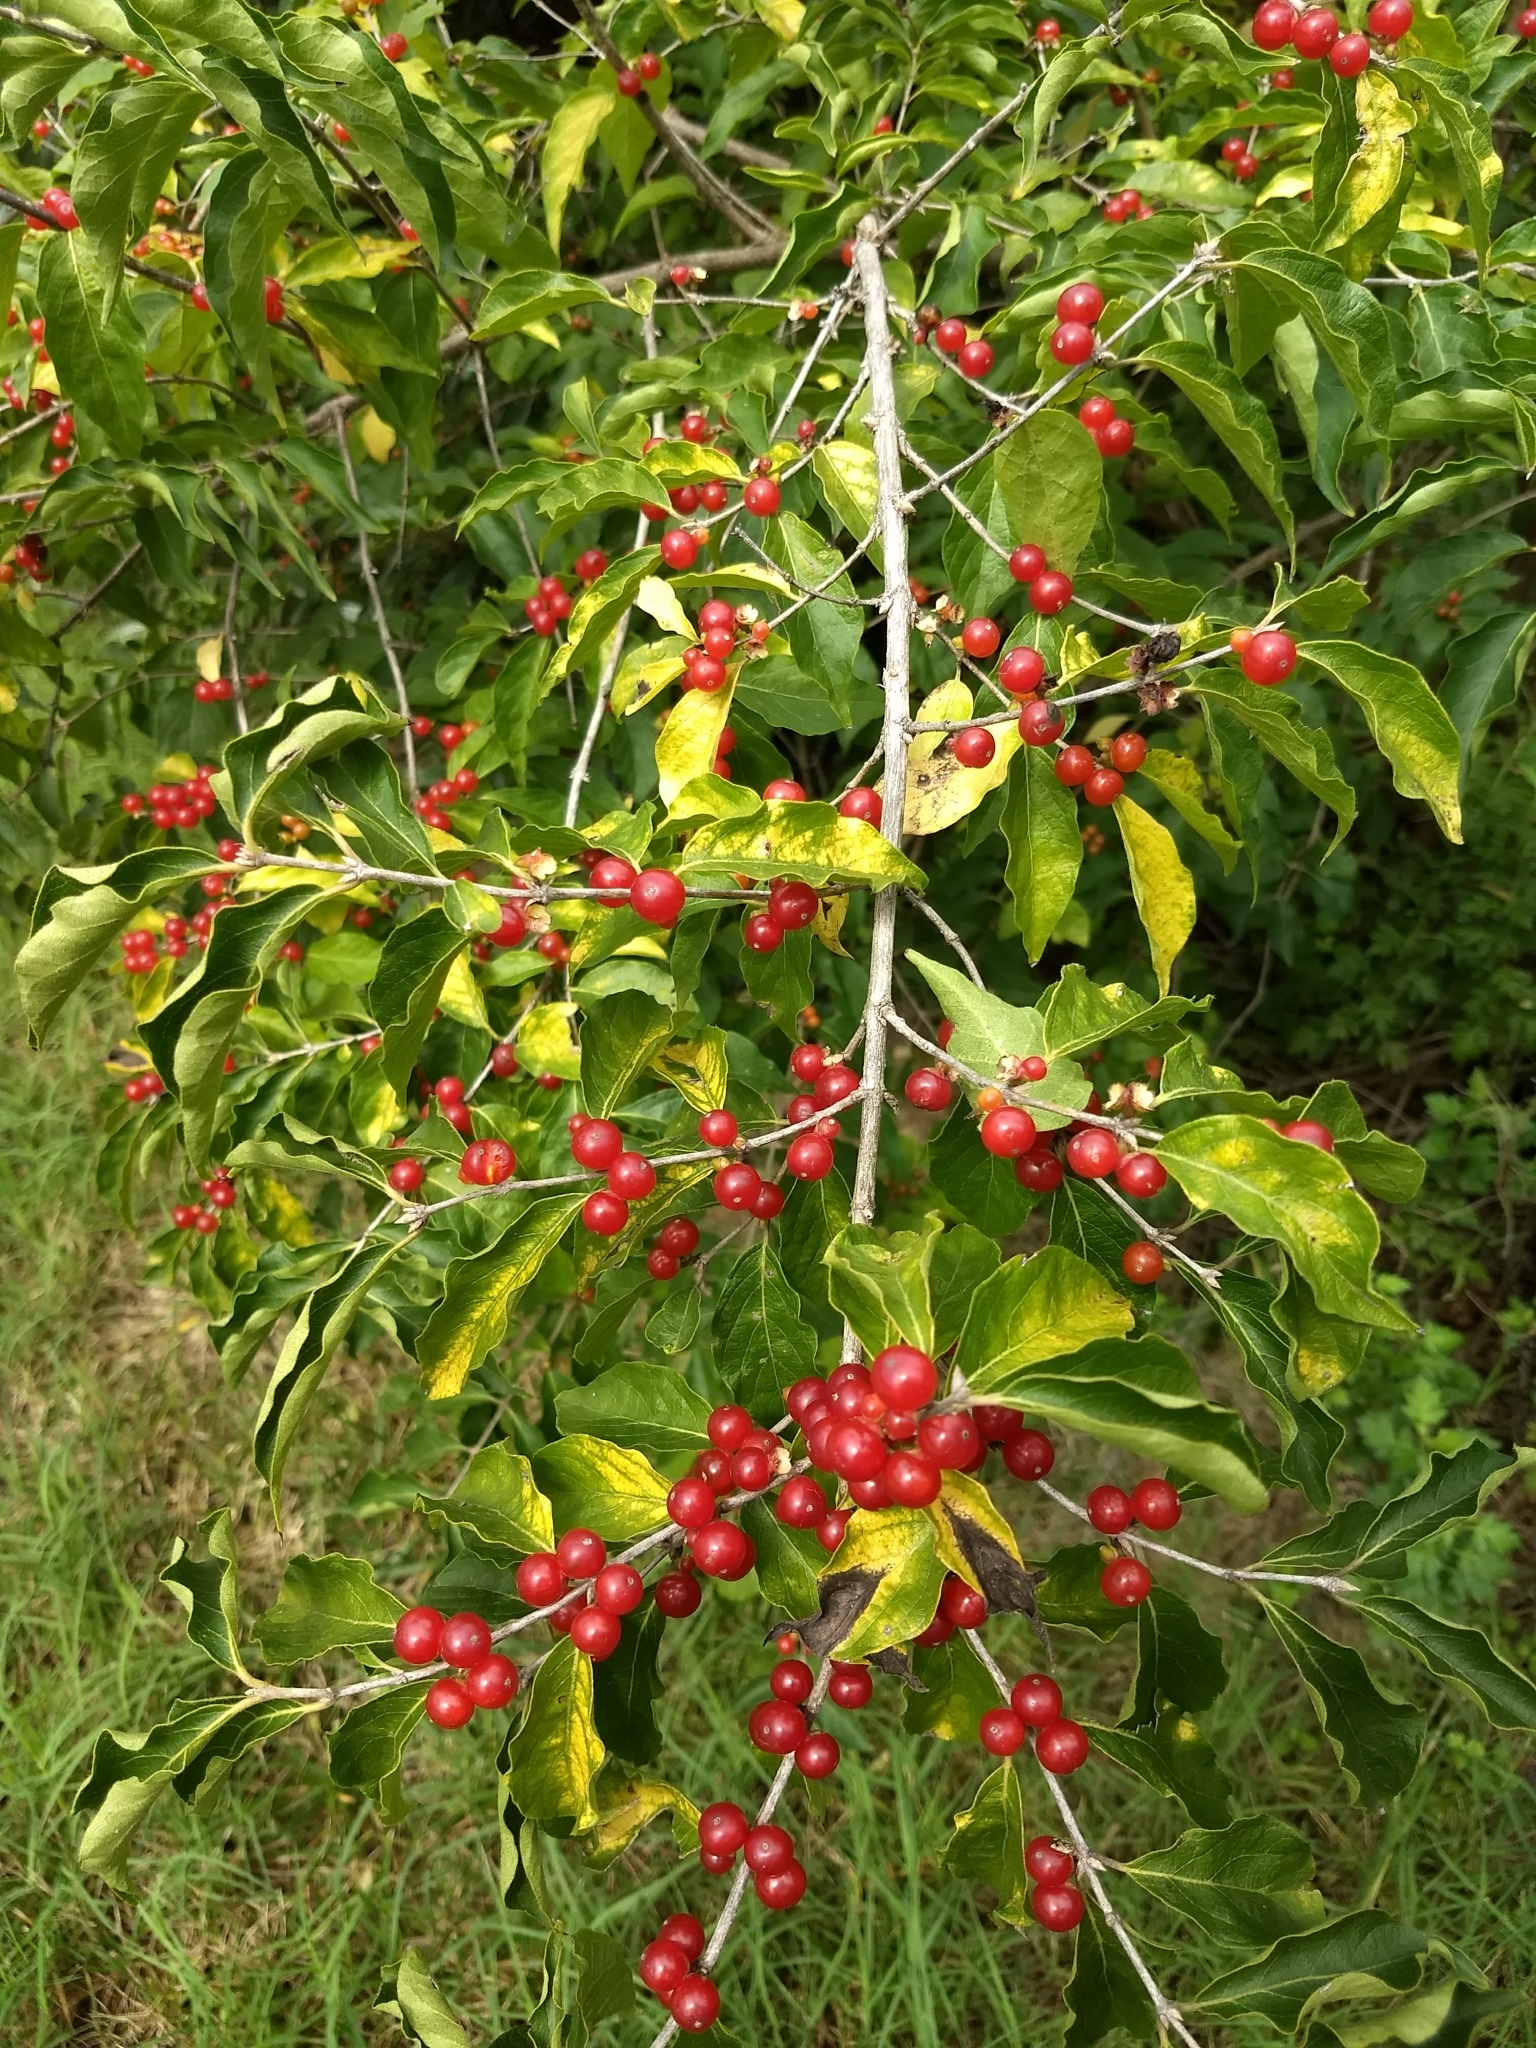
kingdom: Plantae
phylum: Tracheophyta
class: Magnoliopsida
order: Dipsacales
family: Caprifoliaceae
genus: Lonicera
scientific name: Lonicera maackii
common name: Amur honeysuckle
